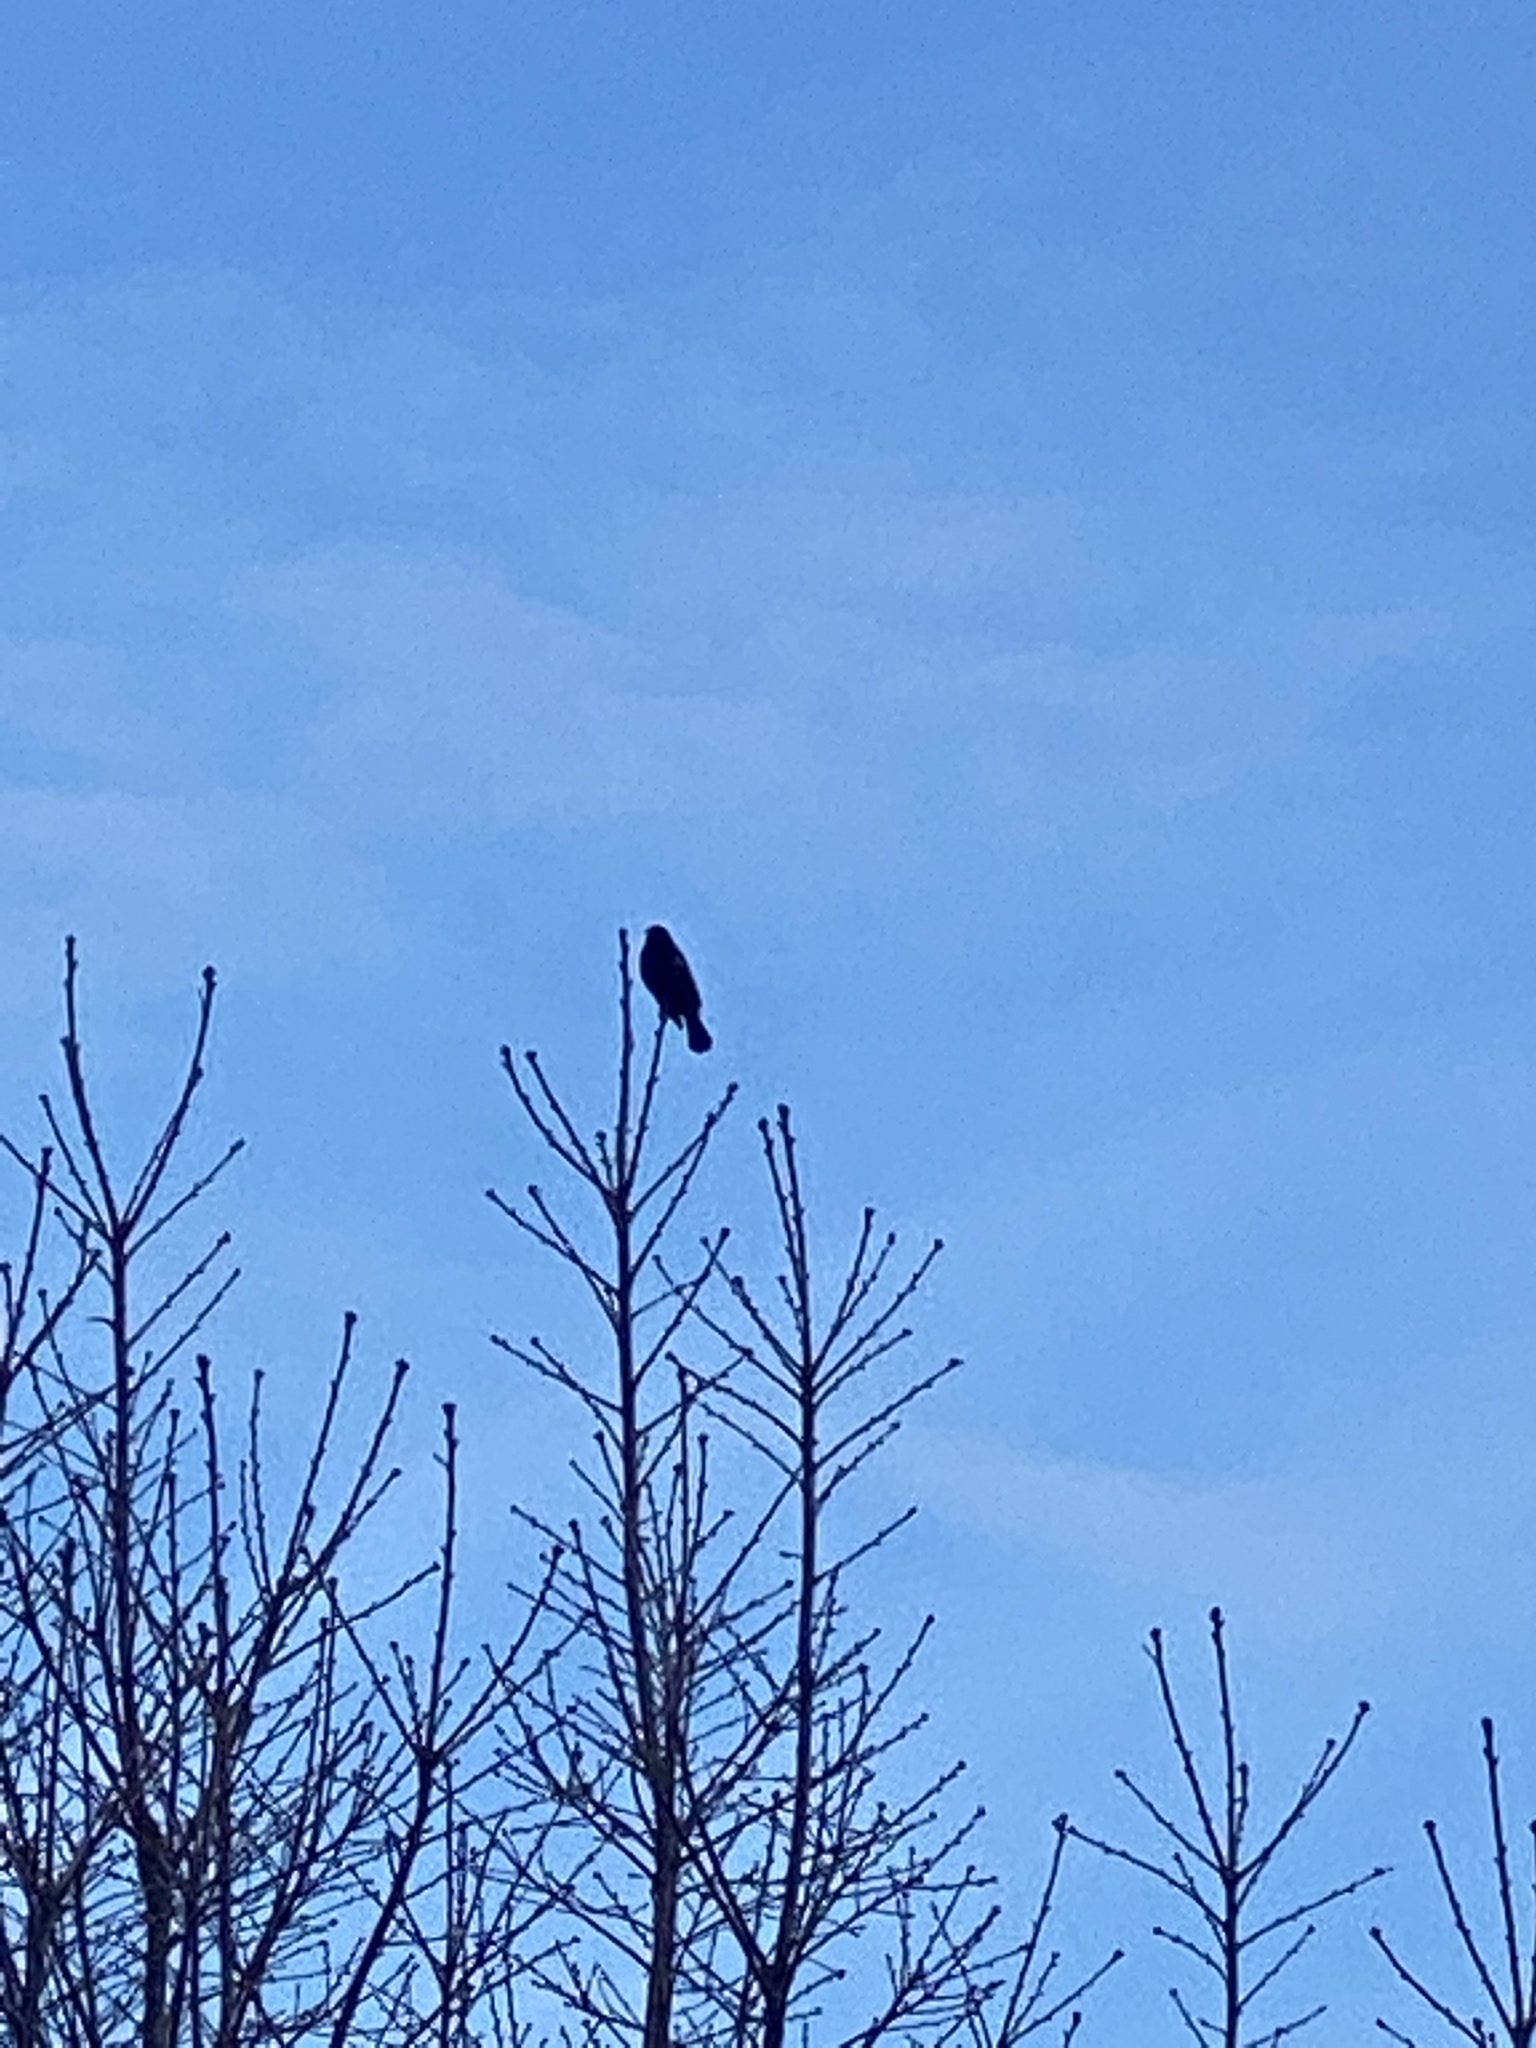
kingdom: Animalia
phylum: Chordata
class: Aves
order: Passeriformes
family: Icteridae
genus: Agelaius
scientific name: Agelaius phoeniceus
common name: Red-winged blackbird
